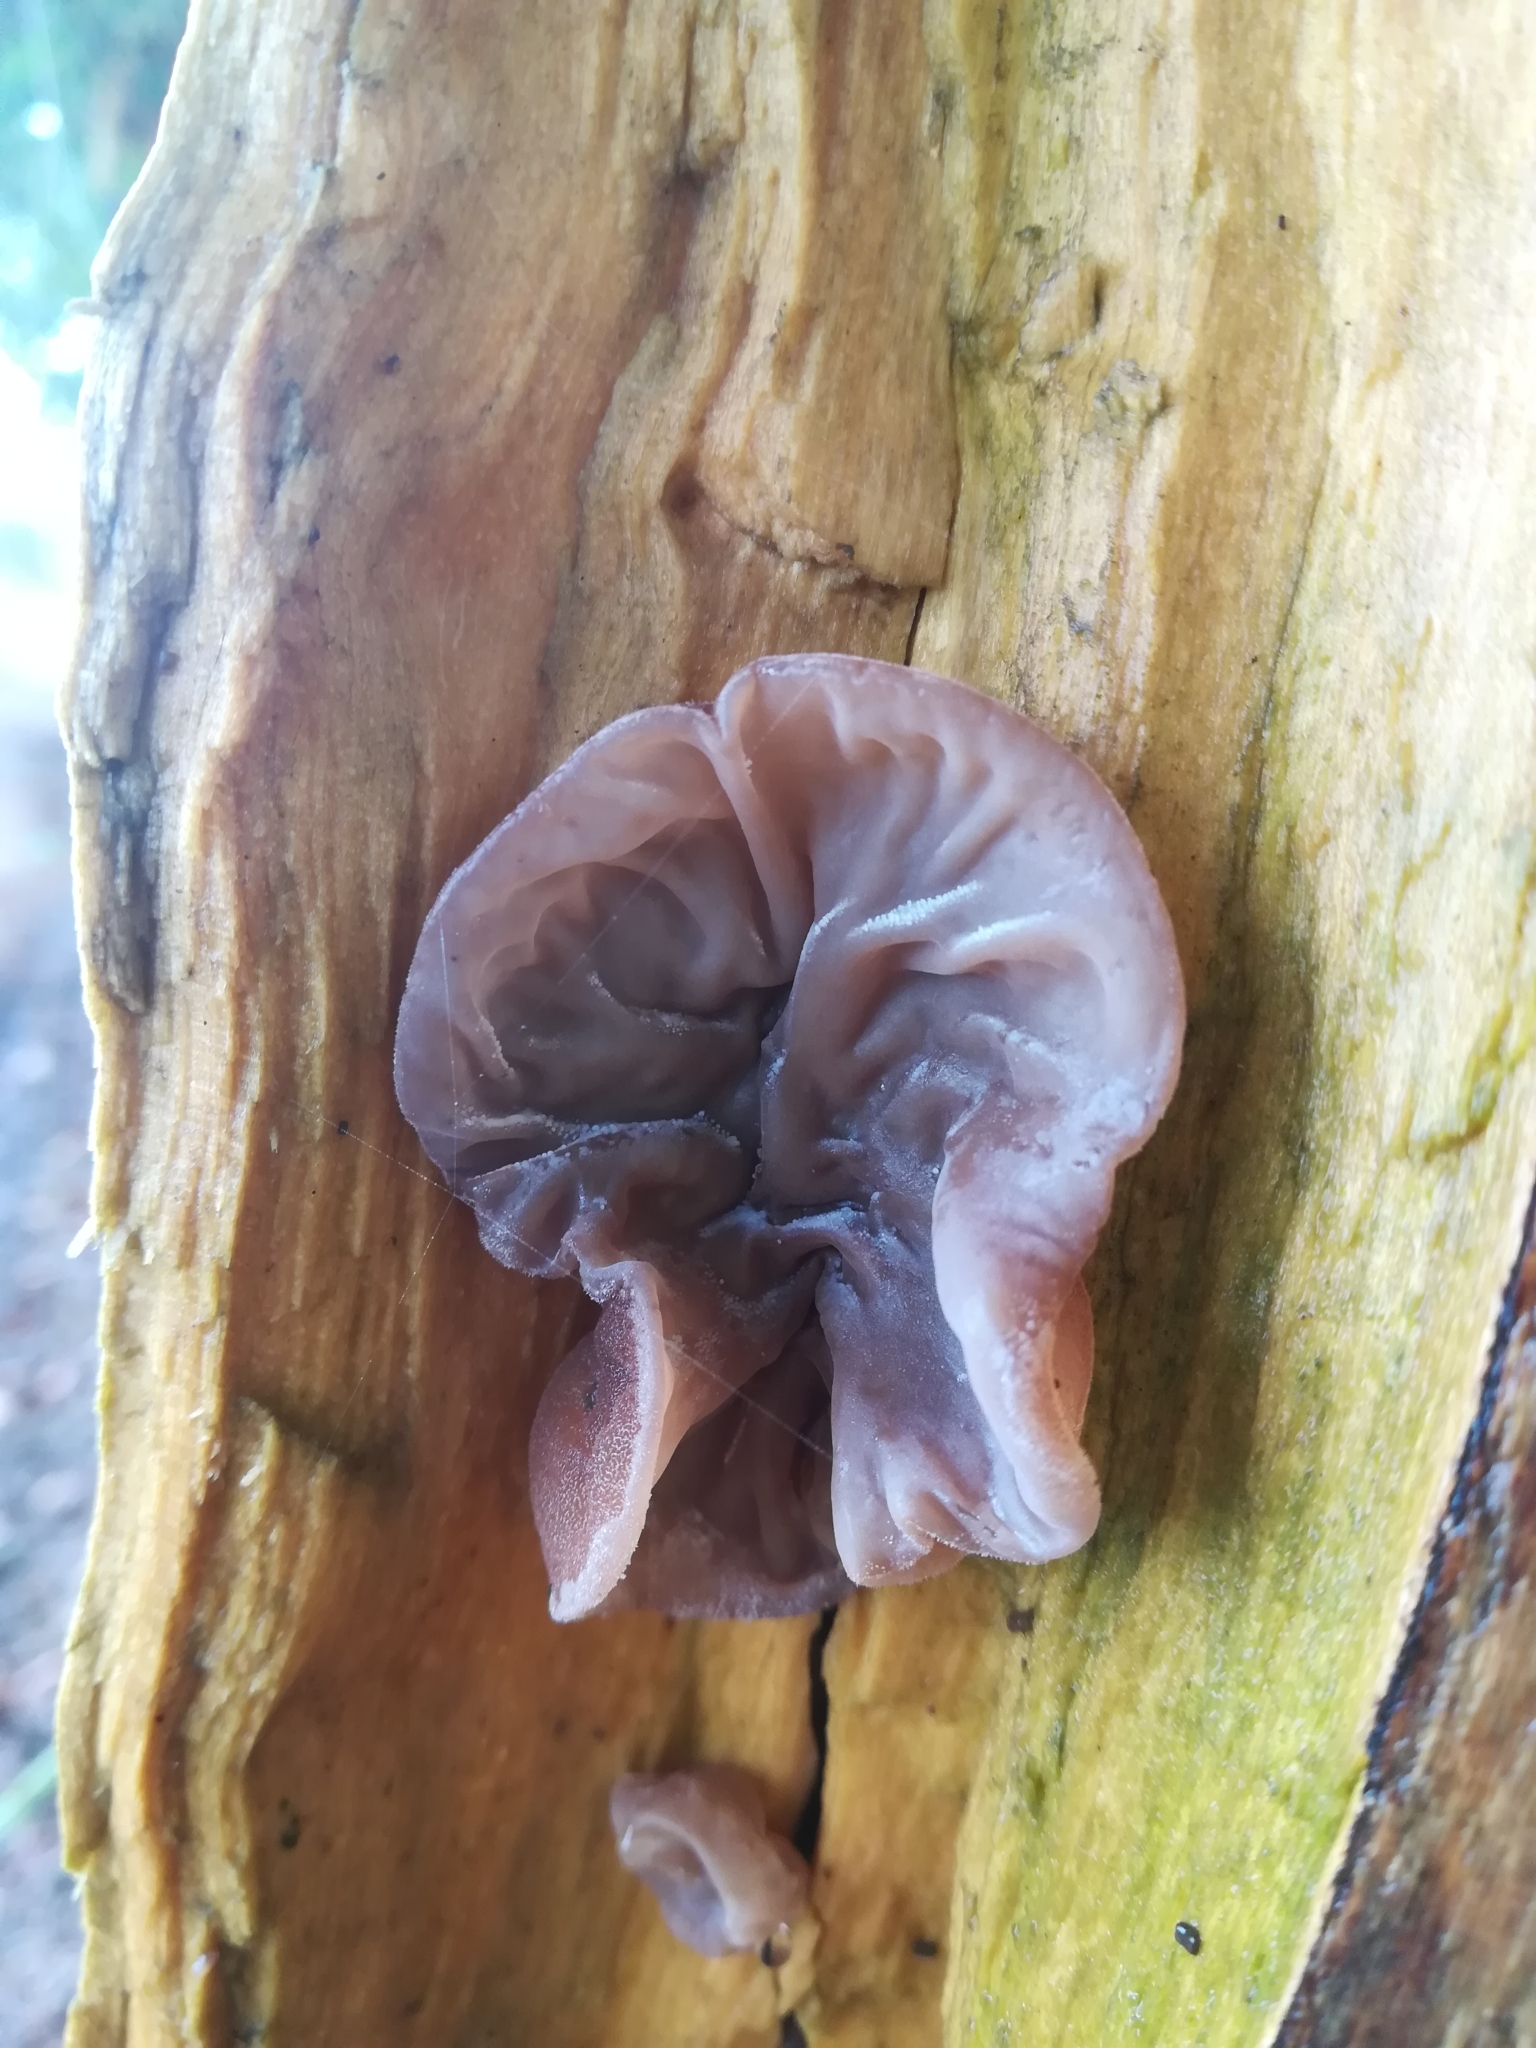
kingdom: Fungi
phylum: Basidiomycota
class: Agaricomycetes
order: Auriculariales
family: Auriculariaceae
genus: Auricularia
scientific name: Auricularia auricula-judae
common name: Jelly ear
